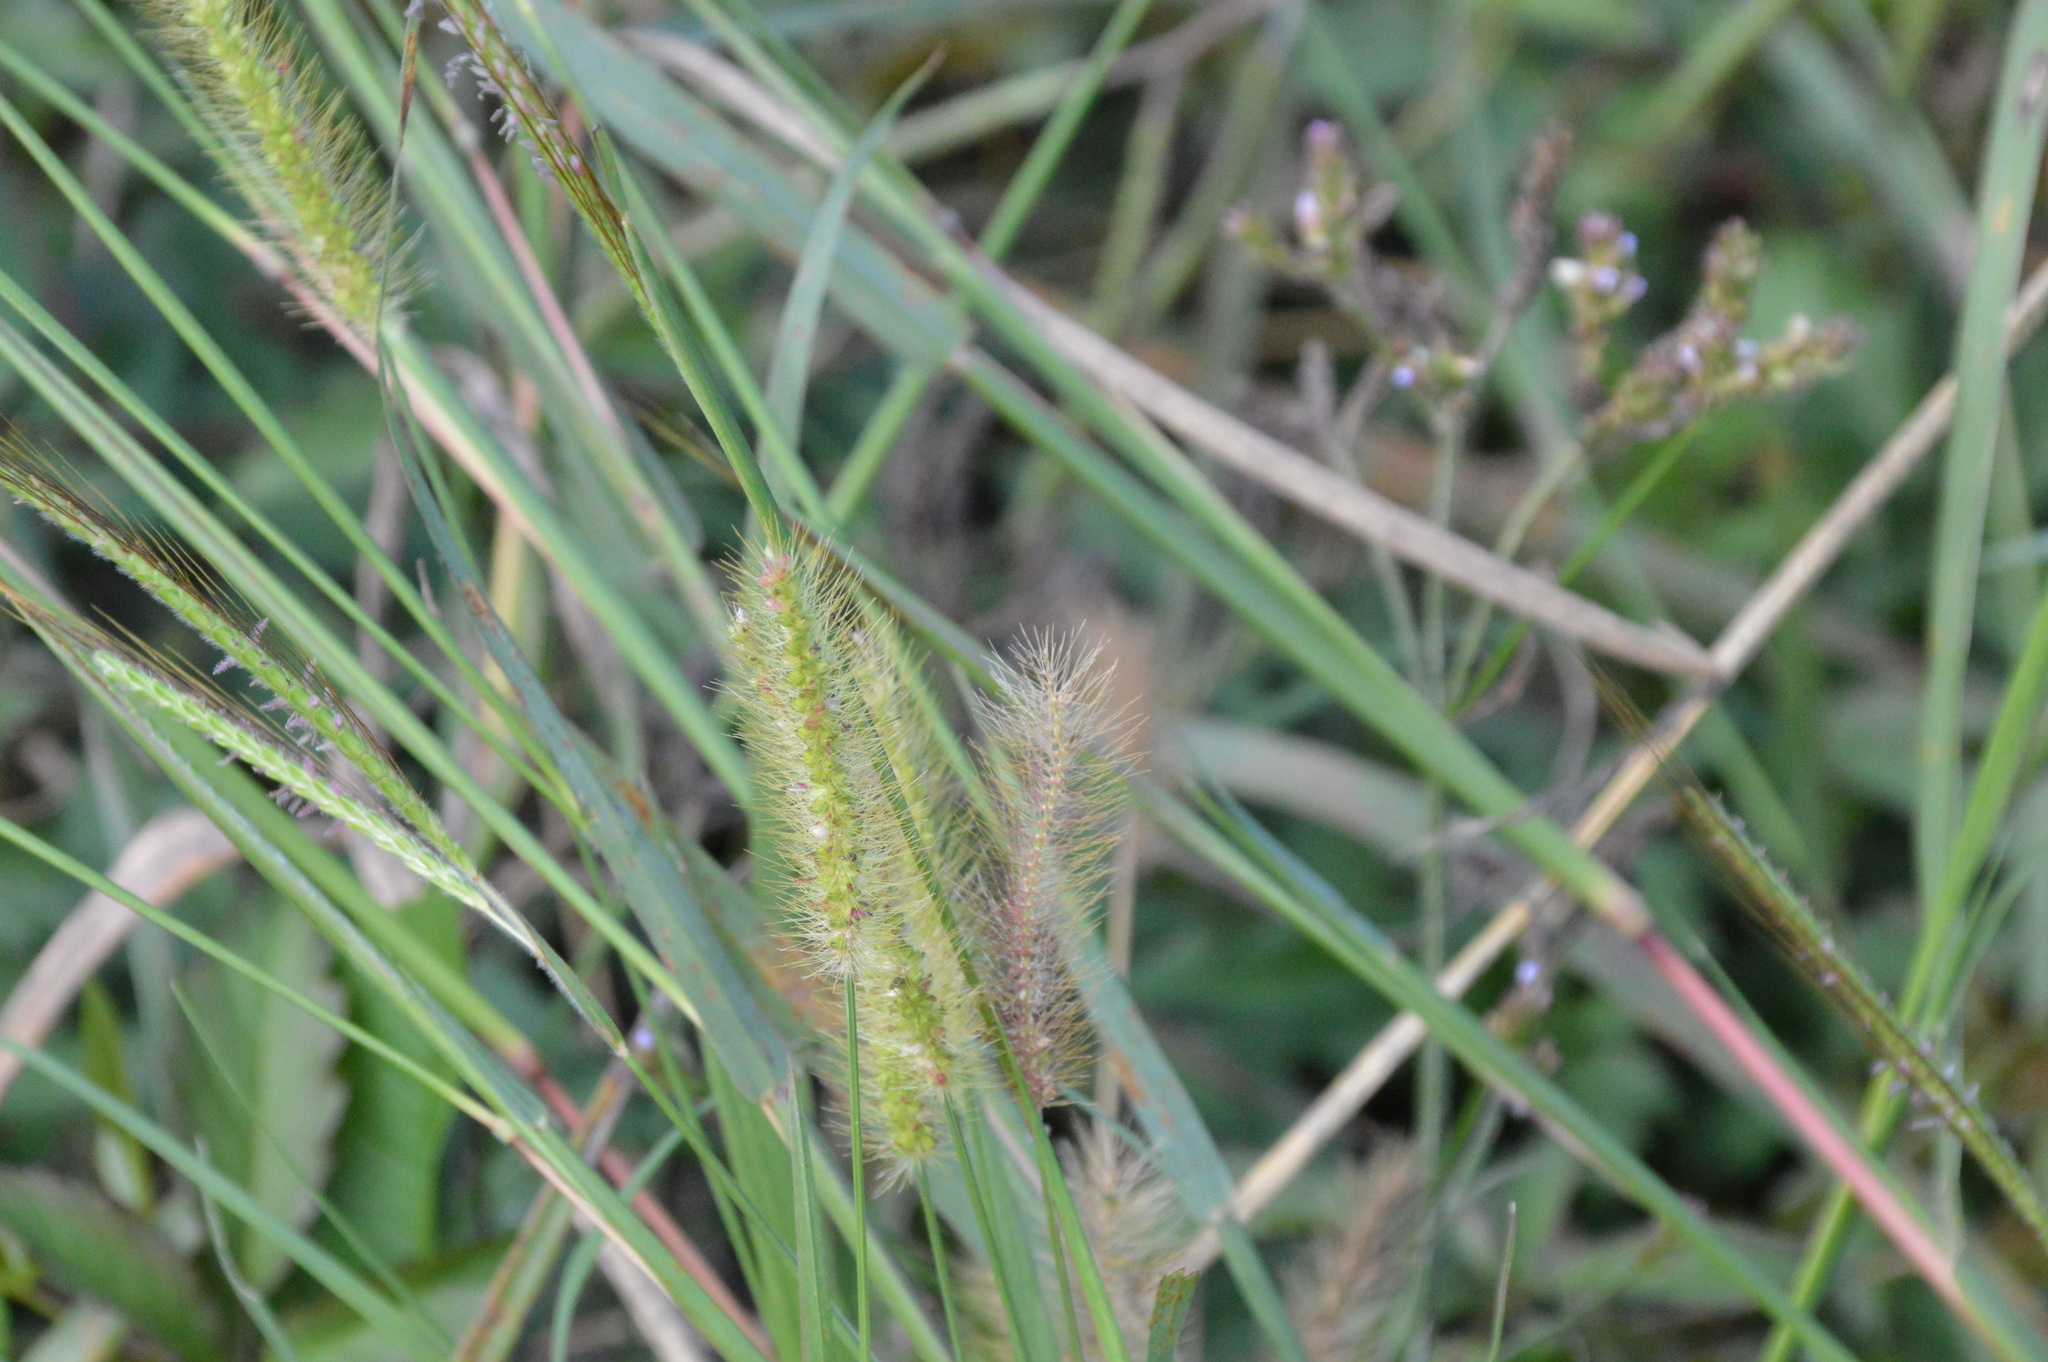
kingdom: Plantae
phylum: Tracheophyta
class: Liliopsida
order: Poales
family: Poaceae
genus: Setaria
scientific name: Setaria parviflora
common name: Knotroot bristle-grass
